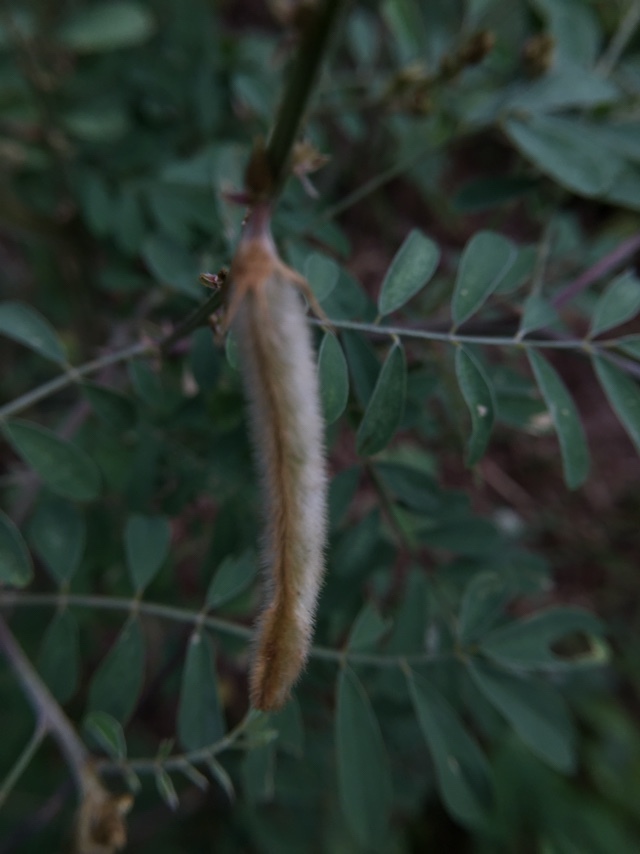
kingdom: Plantae
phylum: Tracheophyta
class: Magnoliopsida
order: Fabales
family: Fabaceae
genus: Tephrosia
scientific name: Tephrosia villosa
